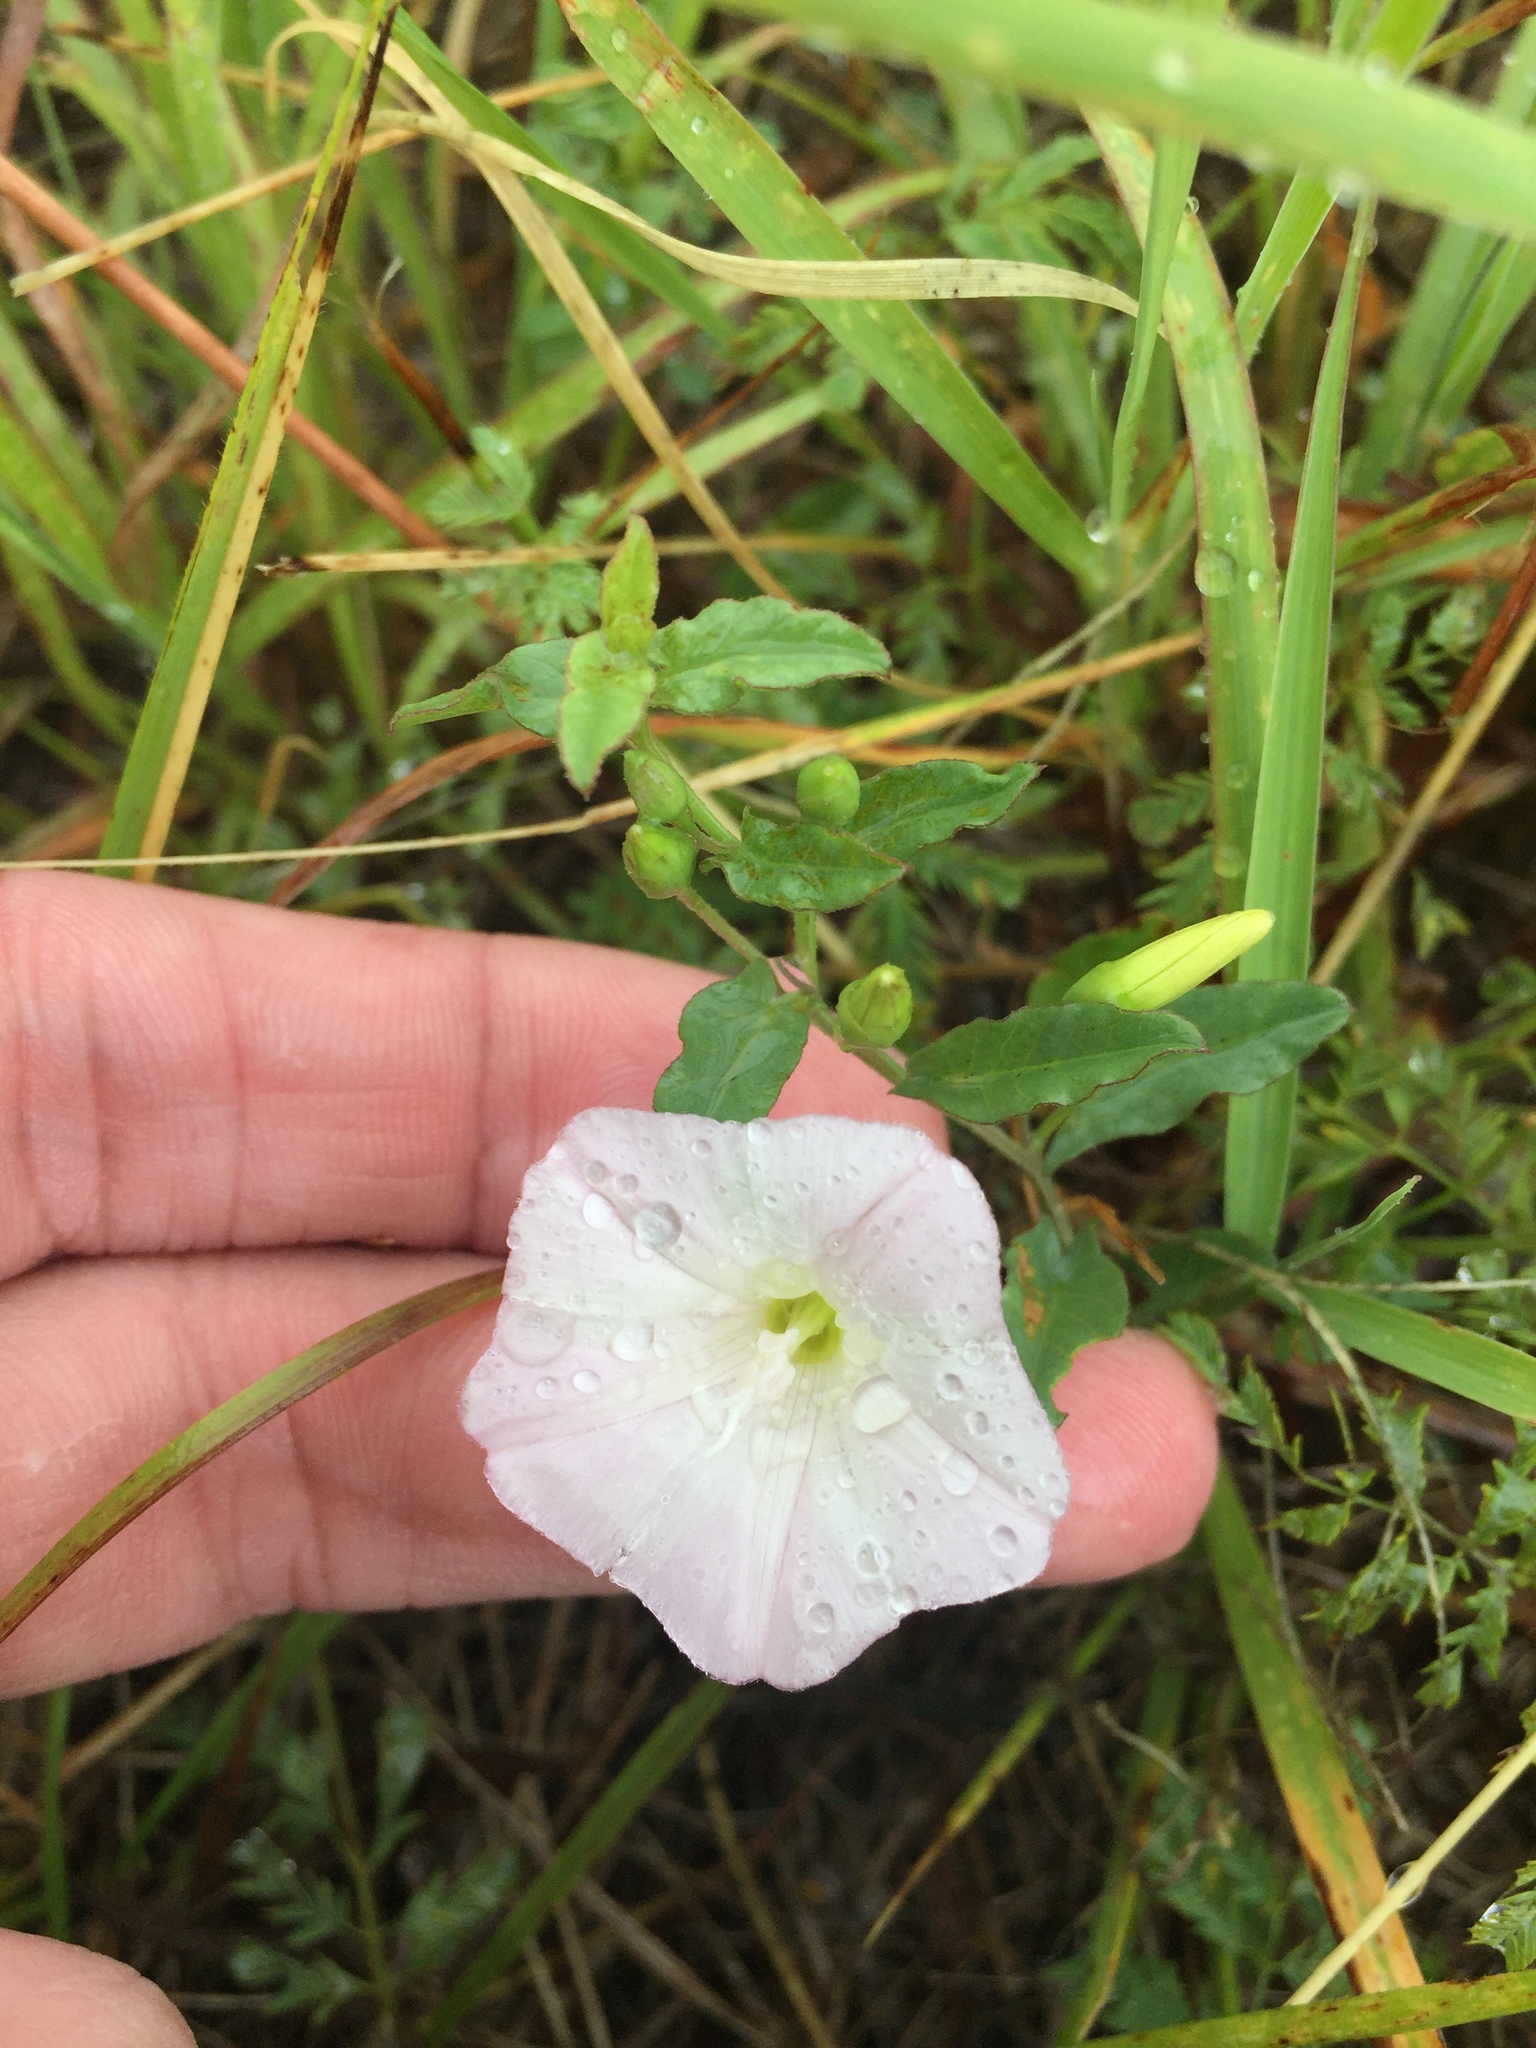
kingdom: Plantae
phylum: Tracheophyta
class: Magnoliopsida
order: Solanales
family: Convolvulaceae
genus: Convolvulus
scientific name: Convolvulus arvensis
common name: Field bindweed
